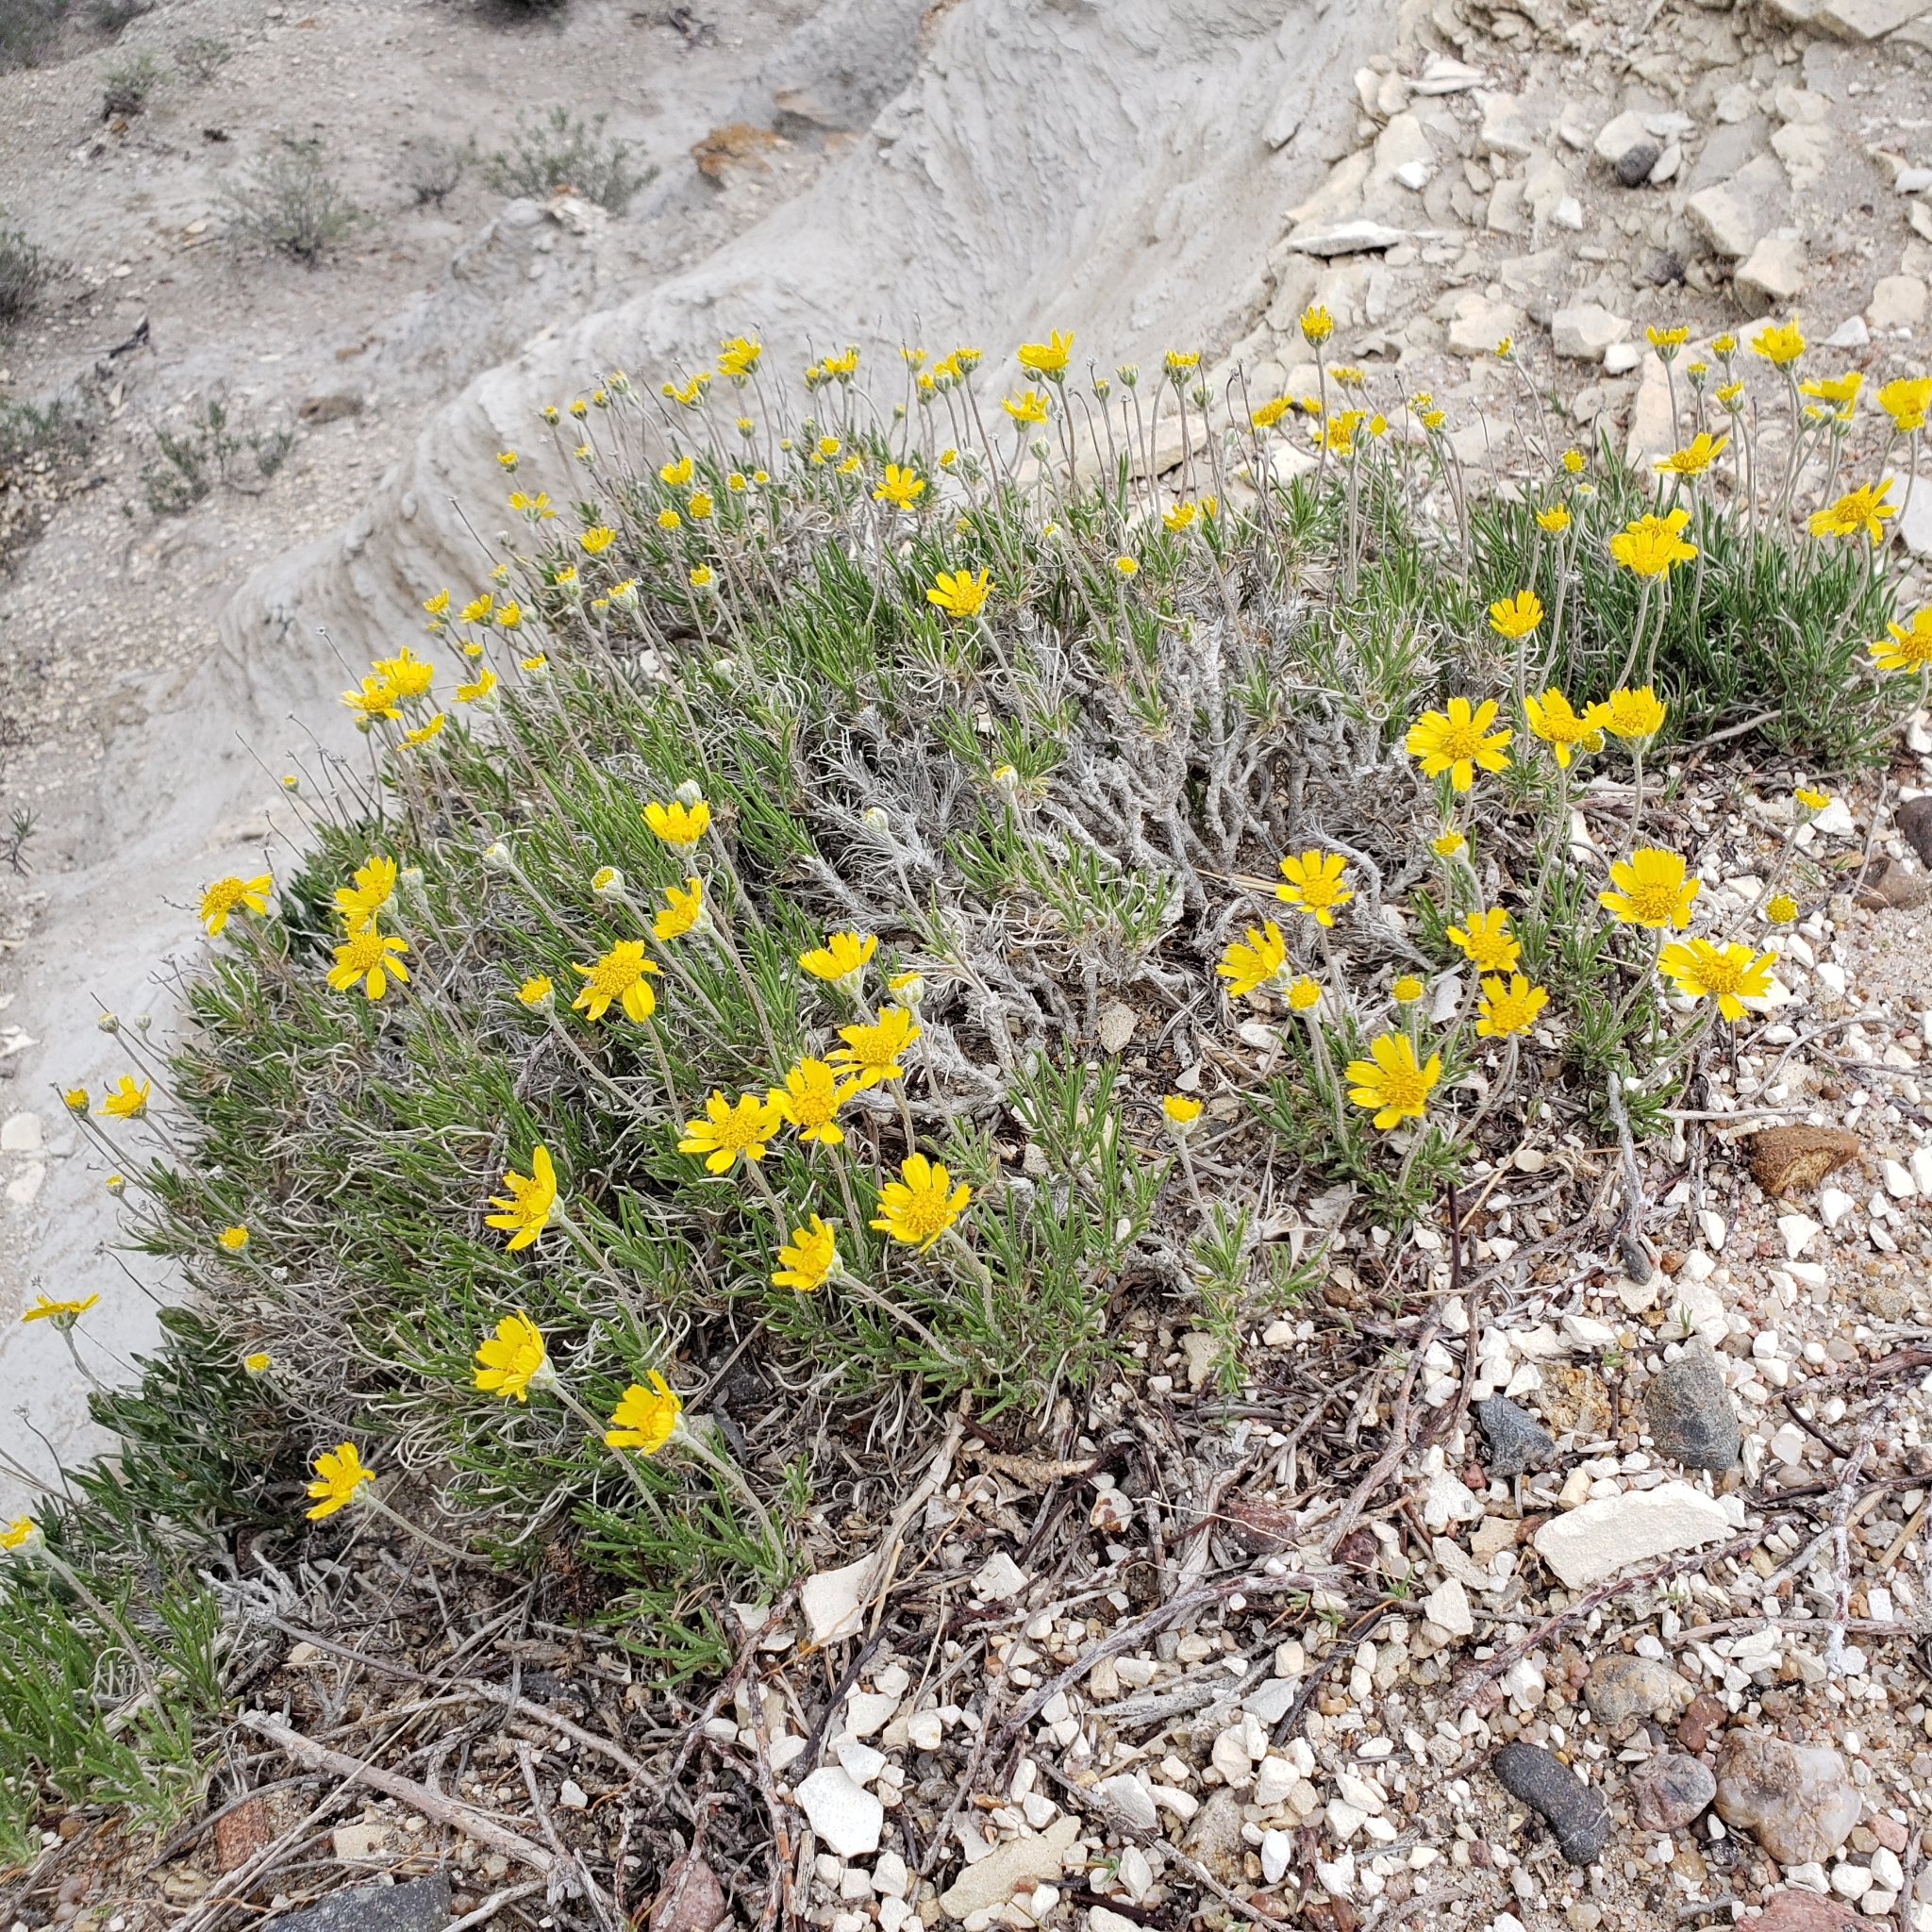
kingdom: Plantae
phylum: Tracheophyta
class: Magnoliopsida
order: Asterales
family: Asteraceae
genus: Tetraneuris
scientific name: Tetraneuris scaposa
